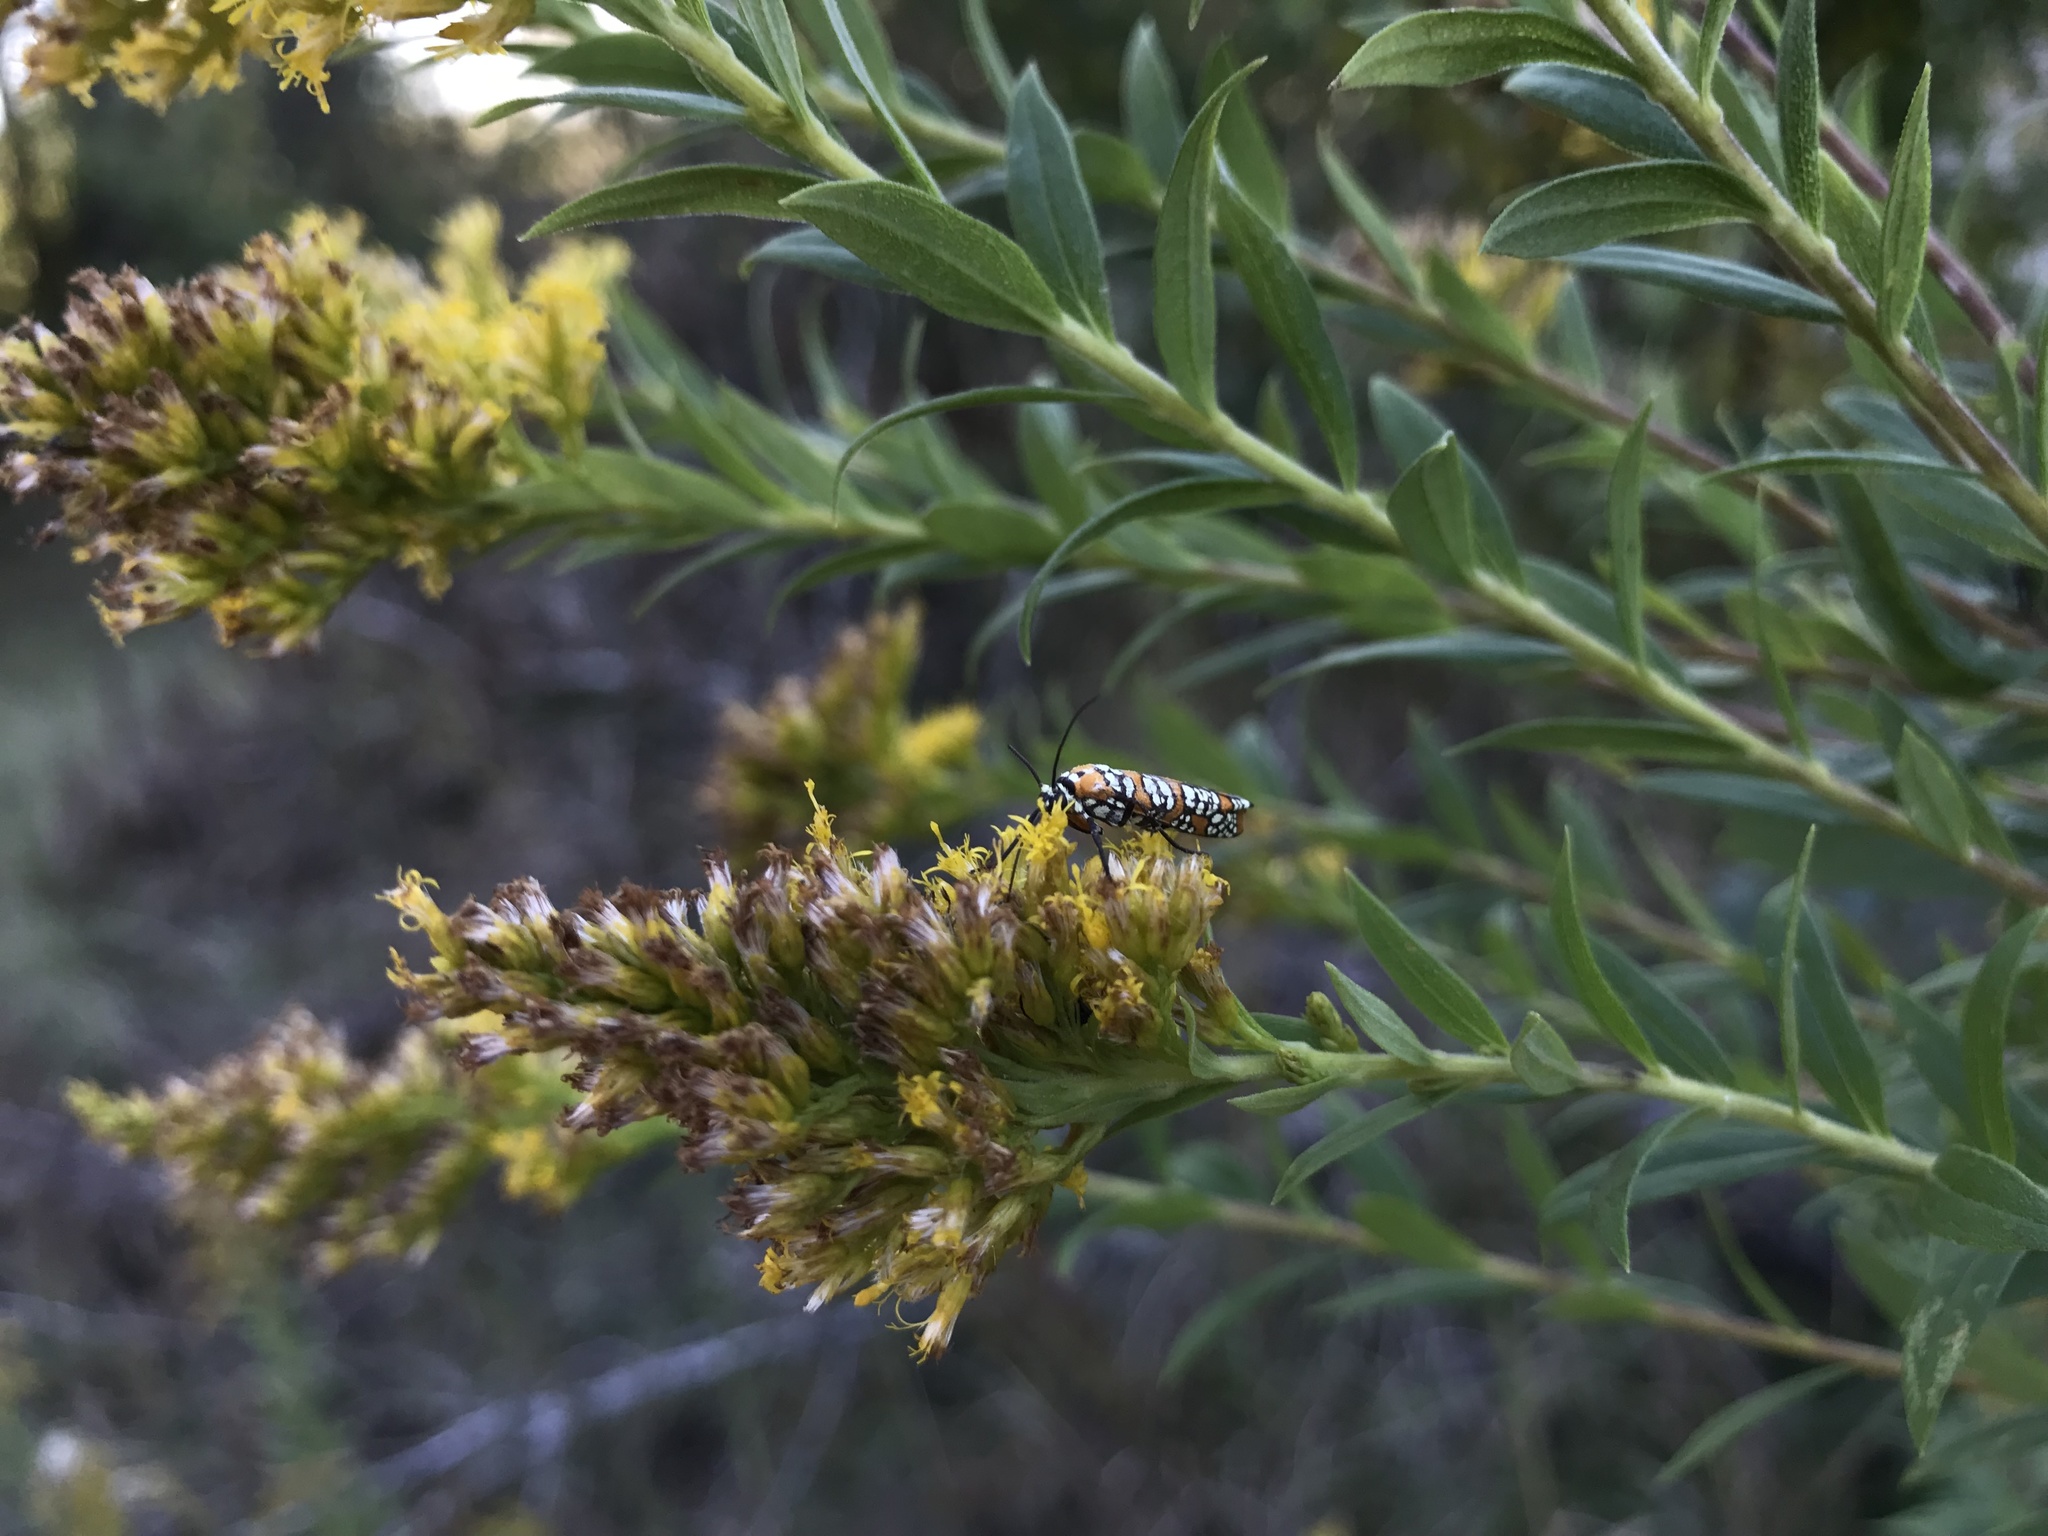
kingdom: Animalia
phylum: Arthropoda
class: Insecta
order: Lepidoptera
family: Attevidae
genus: Atteva
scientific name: Atteva punctella
